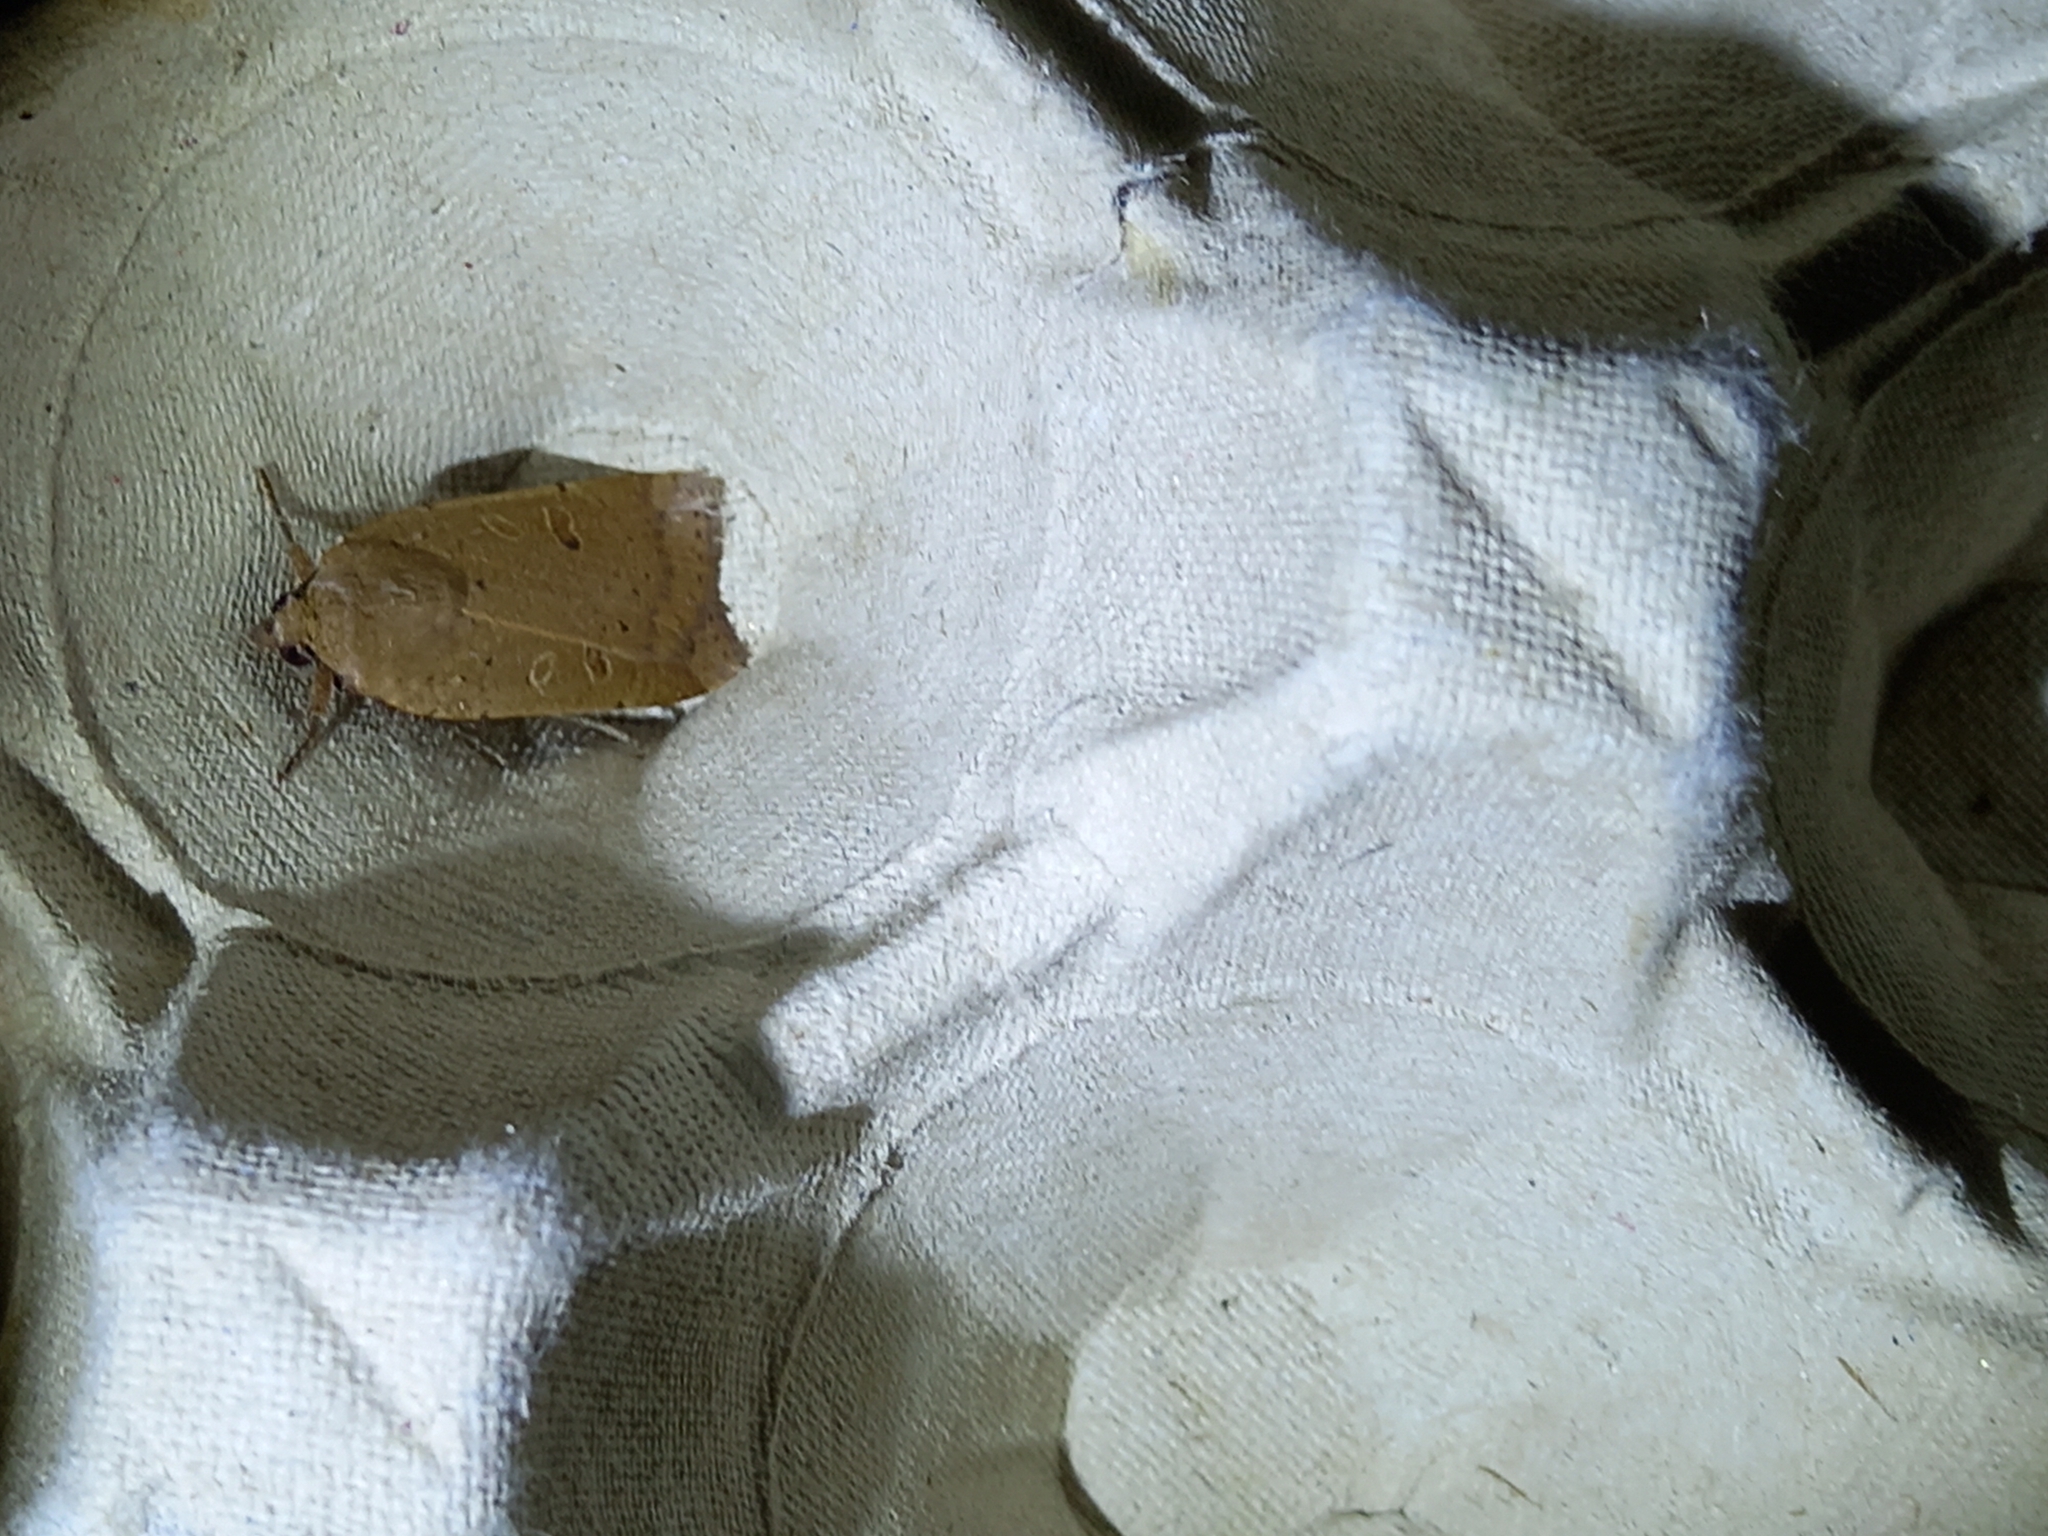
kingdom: Animalia
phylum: Arthropoda
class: Insecta
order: Lepidoptera
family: Noctuidae
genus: Noctua
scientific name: Noctua comes
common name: Lesser yellow underwing
